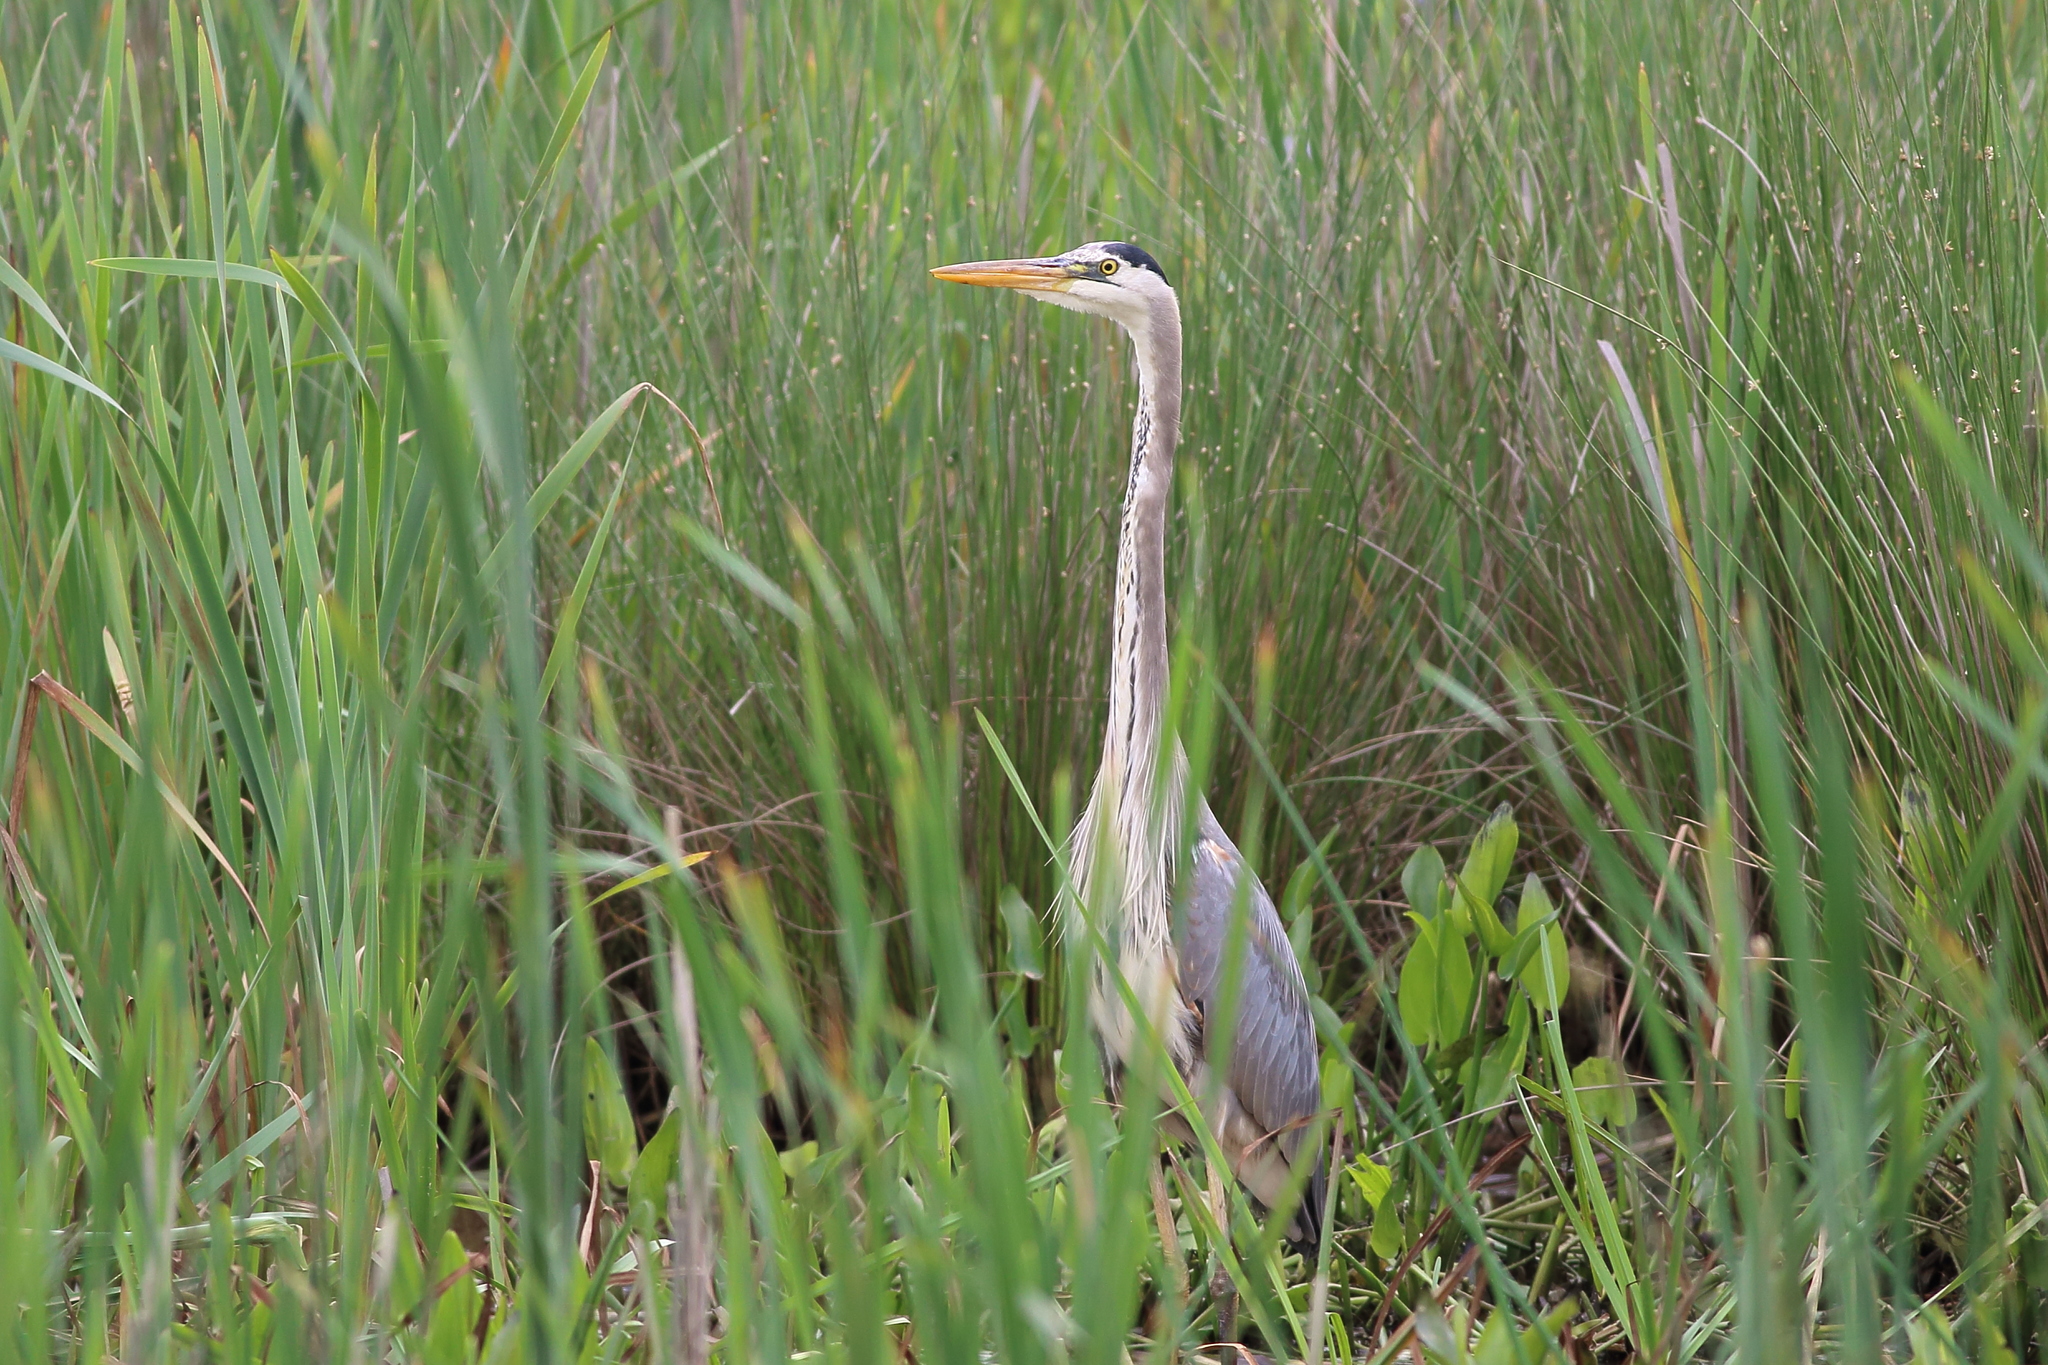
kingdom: Animalia
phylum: Chordata
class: Aves
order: Pelecaniformes
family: Ardeidae
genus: Ardea
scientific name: Ardea herodias
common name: Great blue heron
